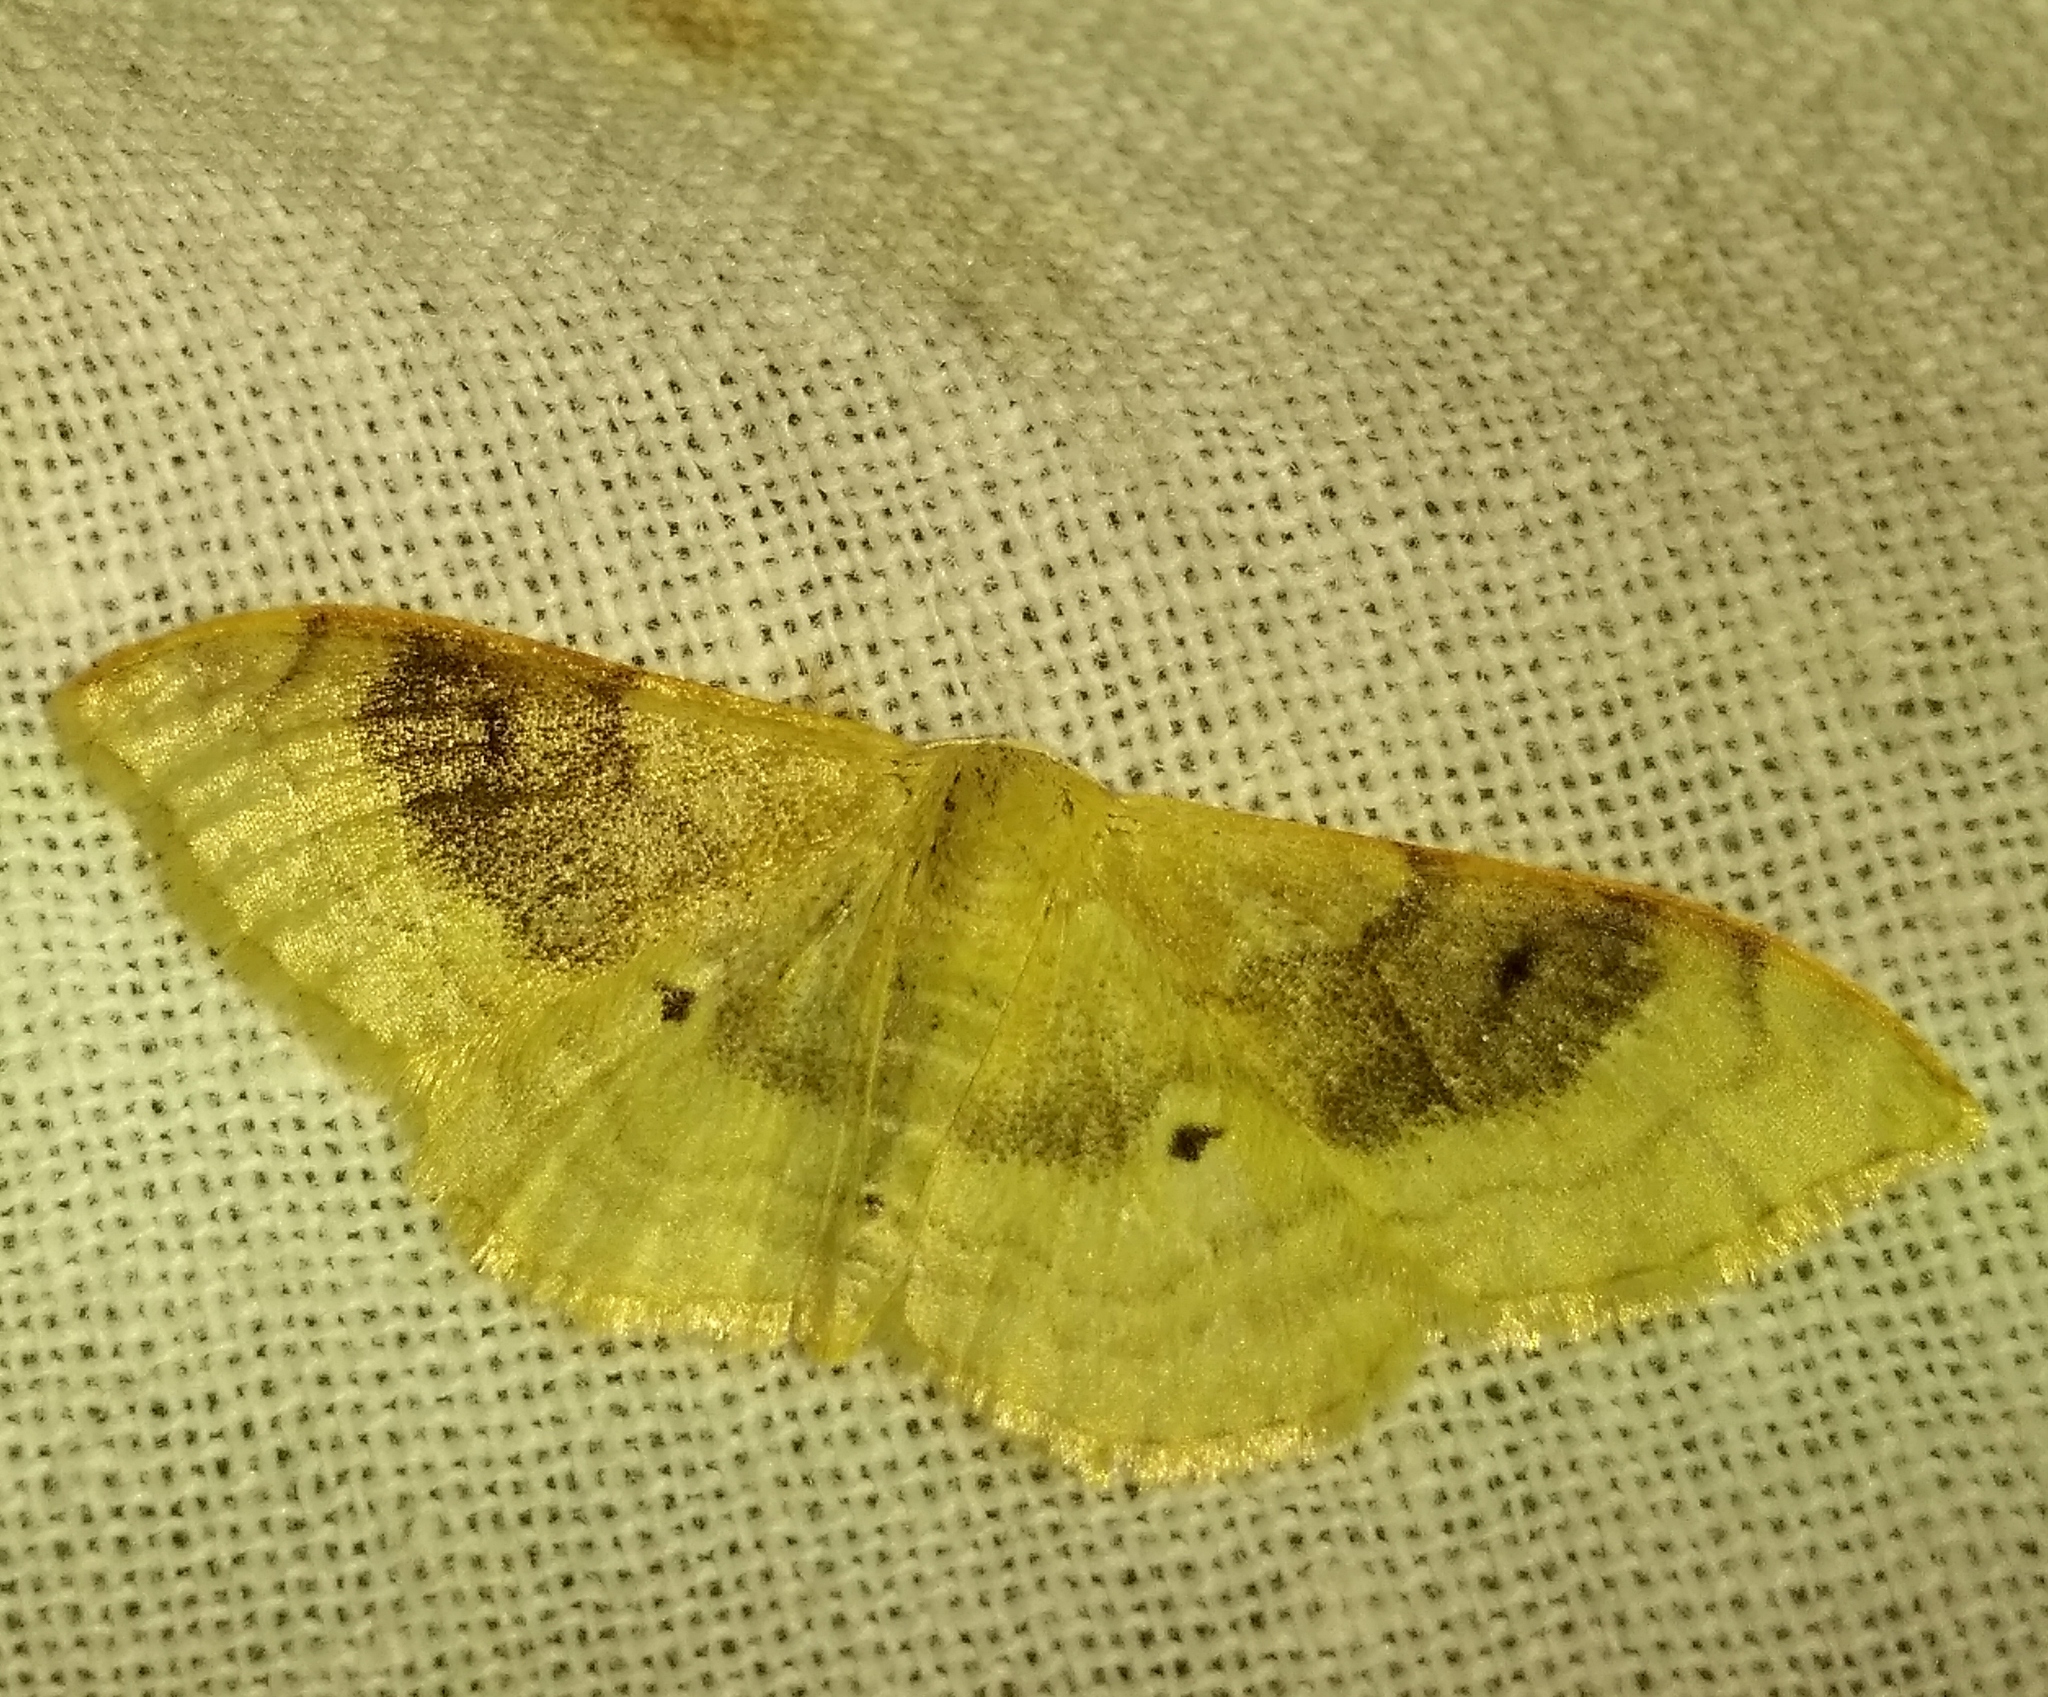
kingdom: Animalia
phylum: Arthropoda
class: Insecta
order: Lepidoptera
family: Geometridae
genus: Idaea
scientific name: Idaea degeneraria
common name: Portland ribbon wave
